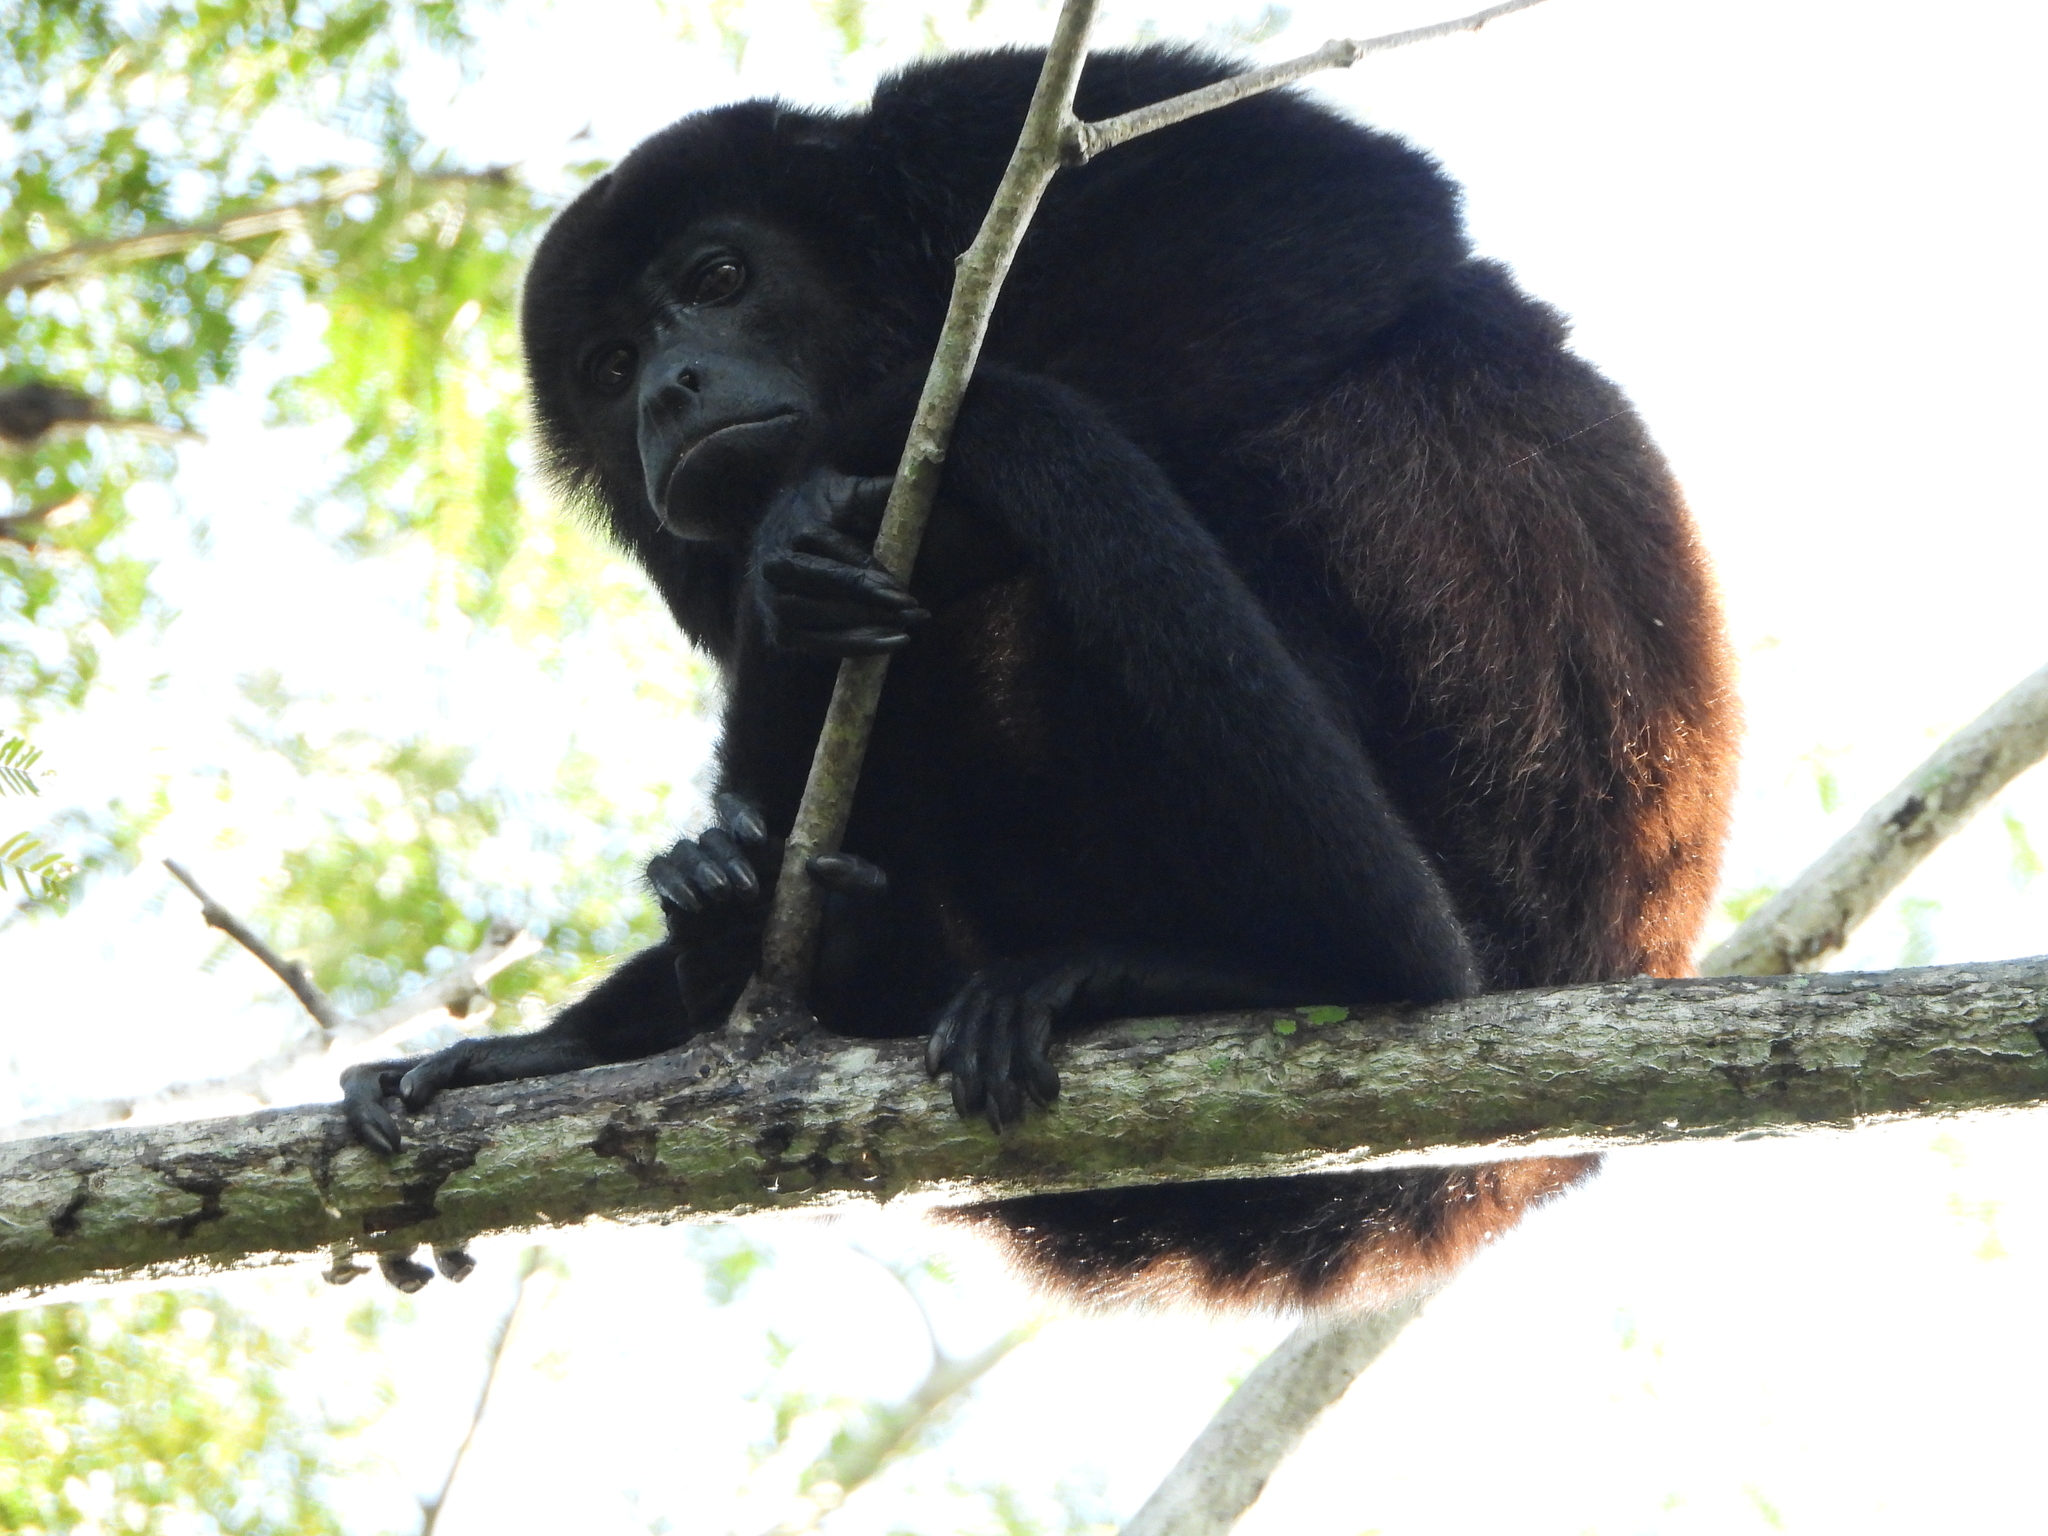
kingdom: Animalia
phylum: Chordata
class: Mammalia
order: Primates
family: Atelidae
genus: Alouatta
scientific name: Alouatta palliata
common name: Mantled howler
